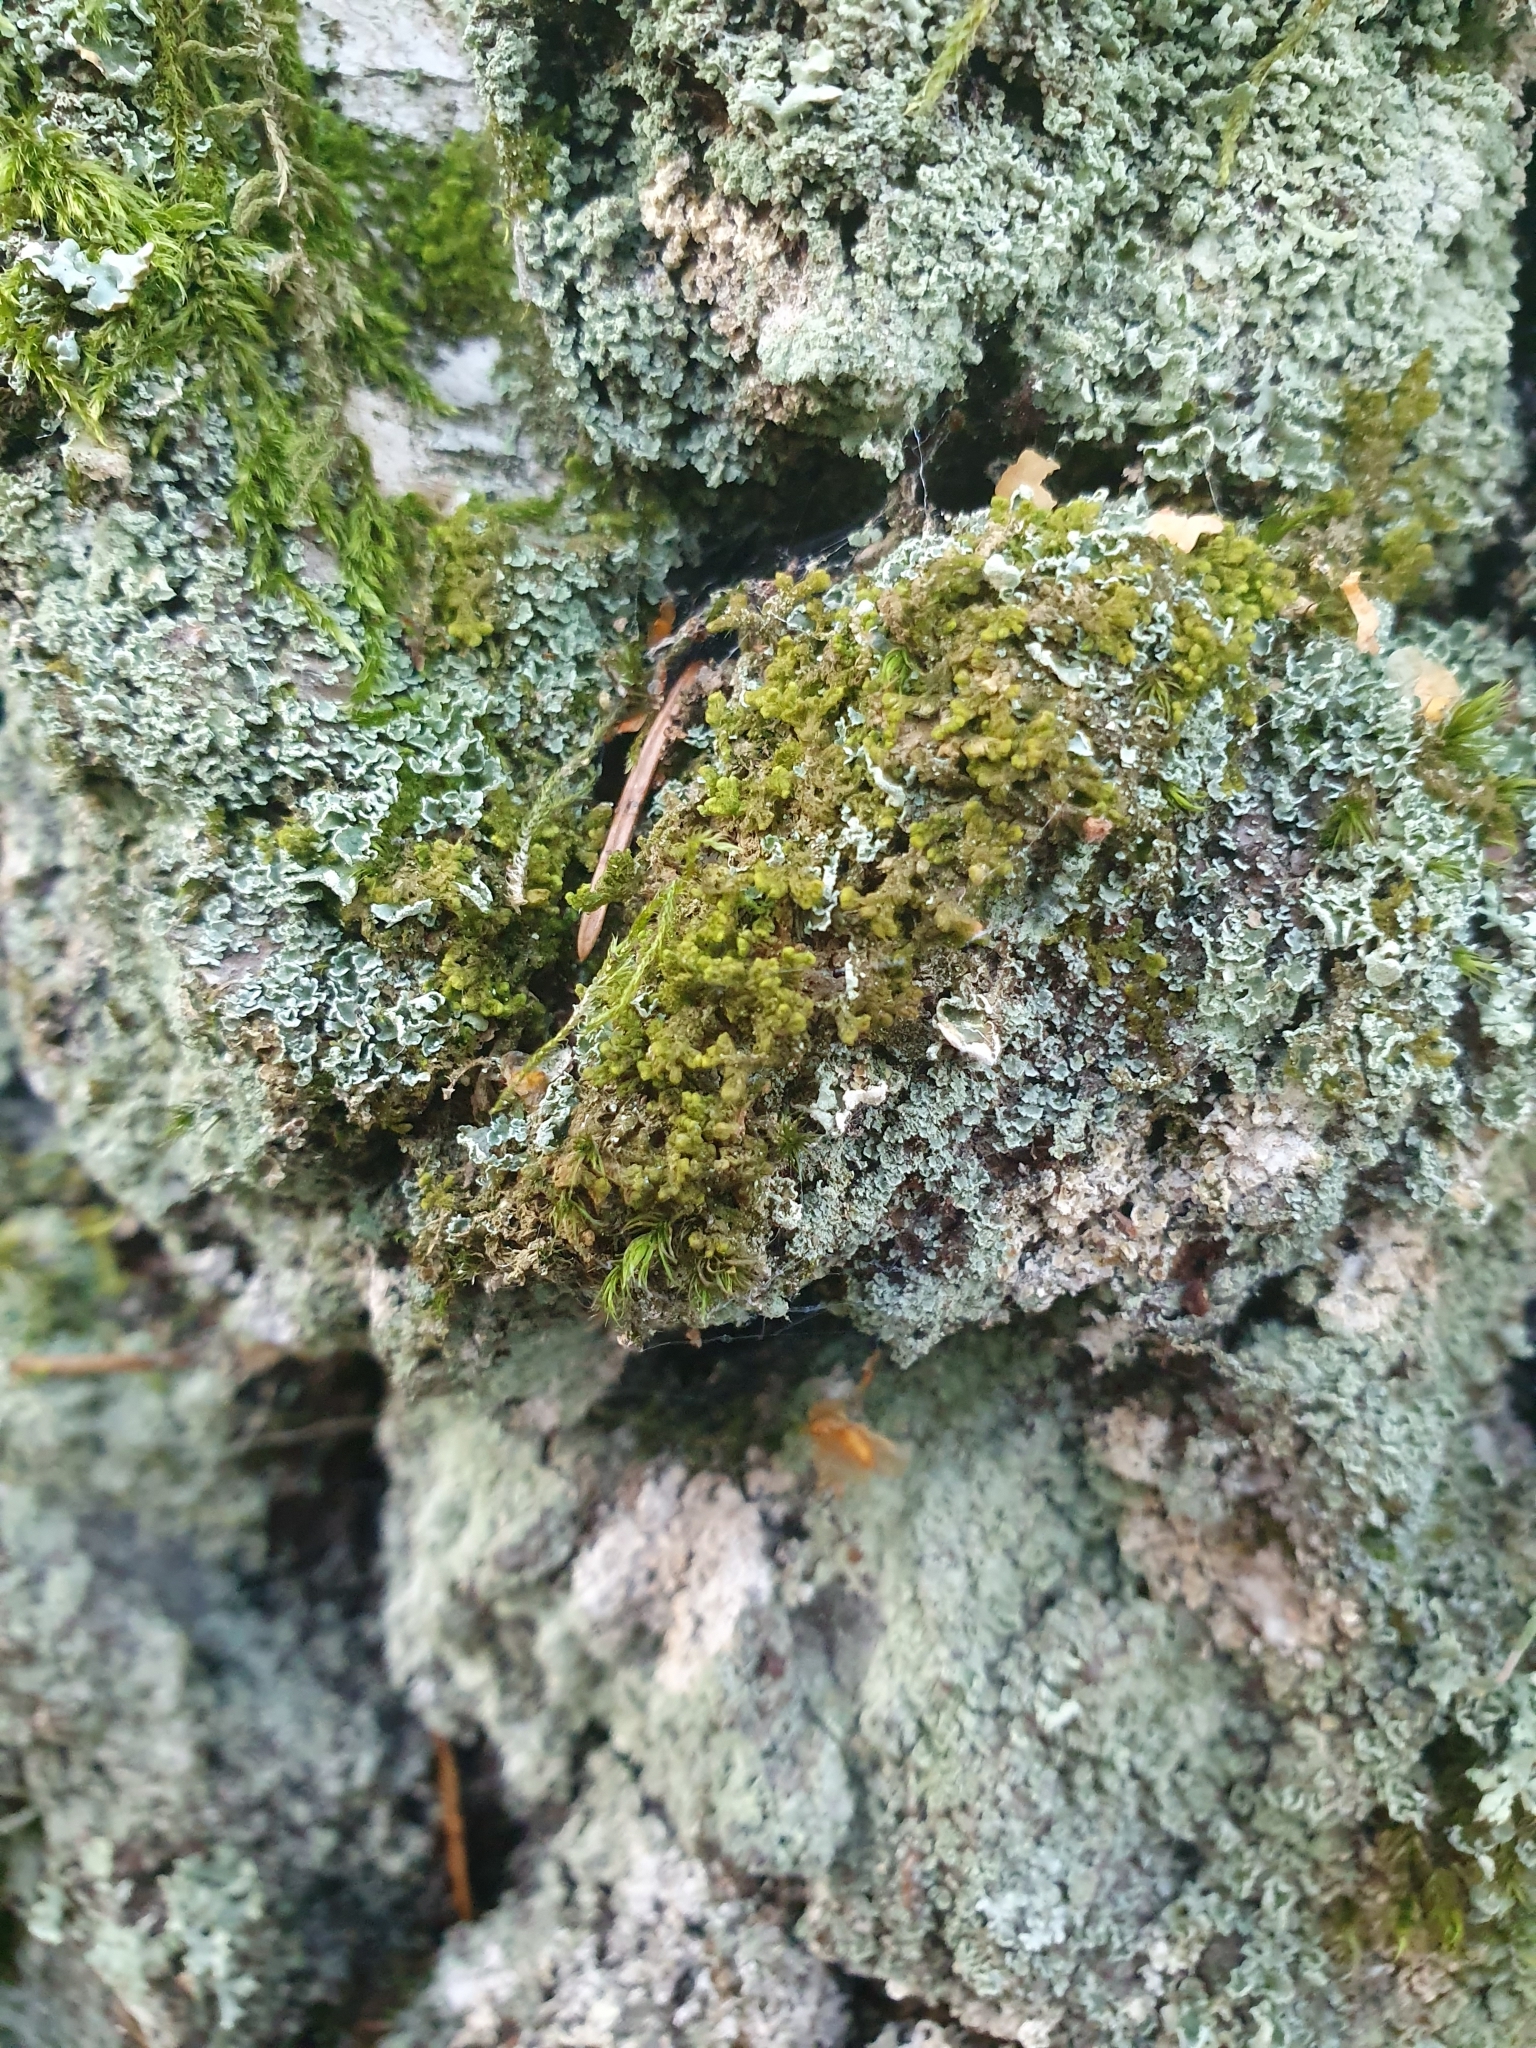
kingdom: Plantae
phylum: Marchantiophyta
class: Jungermanniopsida
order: Ptilidiales
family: Ptilidiaceae
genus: Ptilidium
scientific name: Ptilidium pulcherrimum
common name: Tree fringewort
